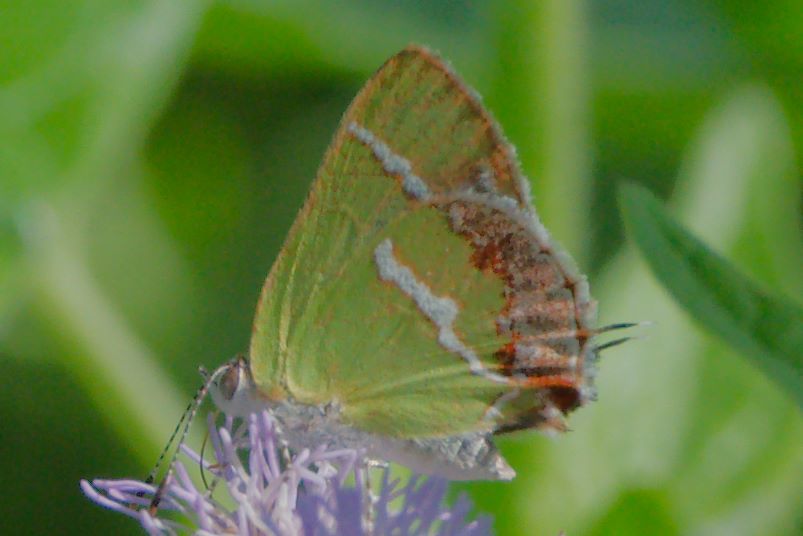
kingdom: Animalia
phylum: Arthropoda
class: Insecta
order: Lepidoptera
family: Lycaenidae
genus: Chlorostrymon
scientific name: Chlorostrymon simaethis
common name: Silver-banded hairstreak
